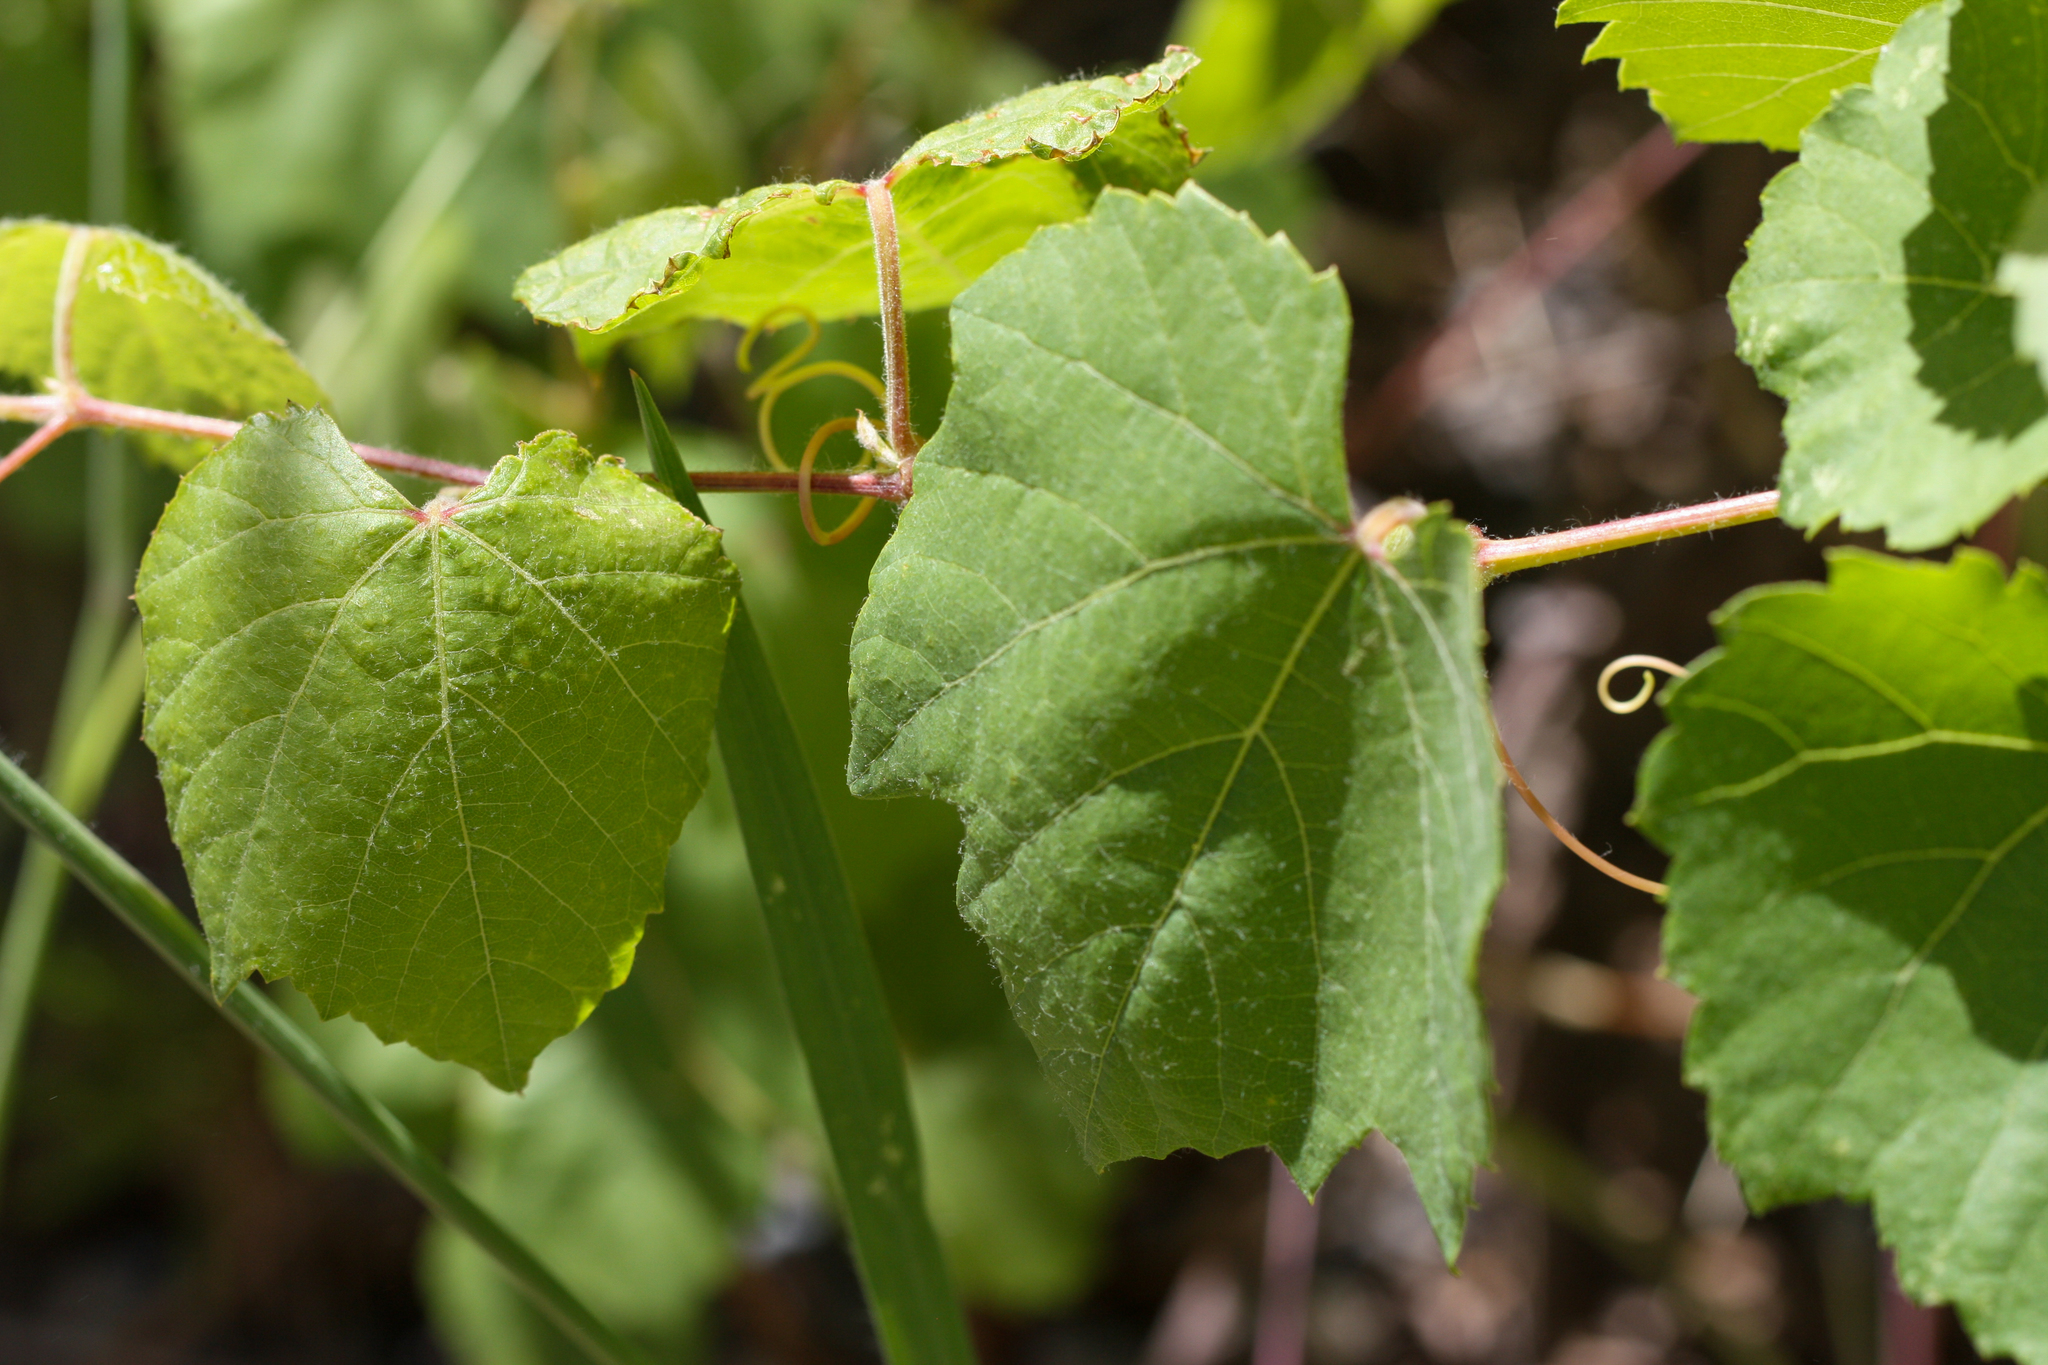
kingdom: Plantae
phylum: Tracheophyta
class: Magnoliopsida
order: Vitales
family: Vitaceae
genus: Vitis
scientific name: Vitis arizonica
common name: Canyon grape
